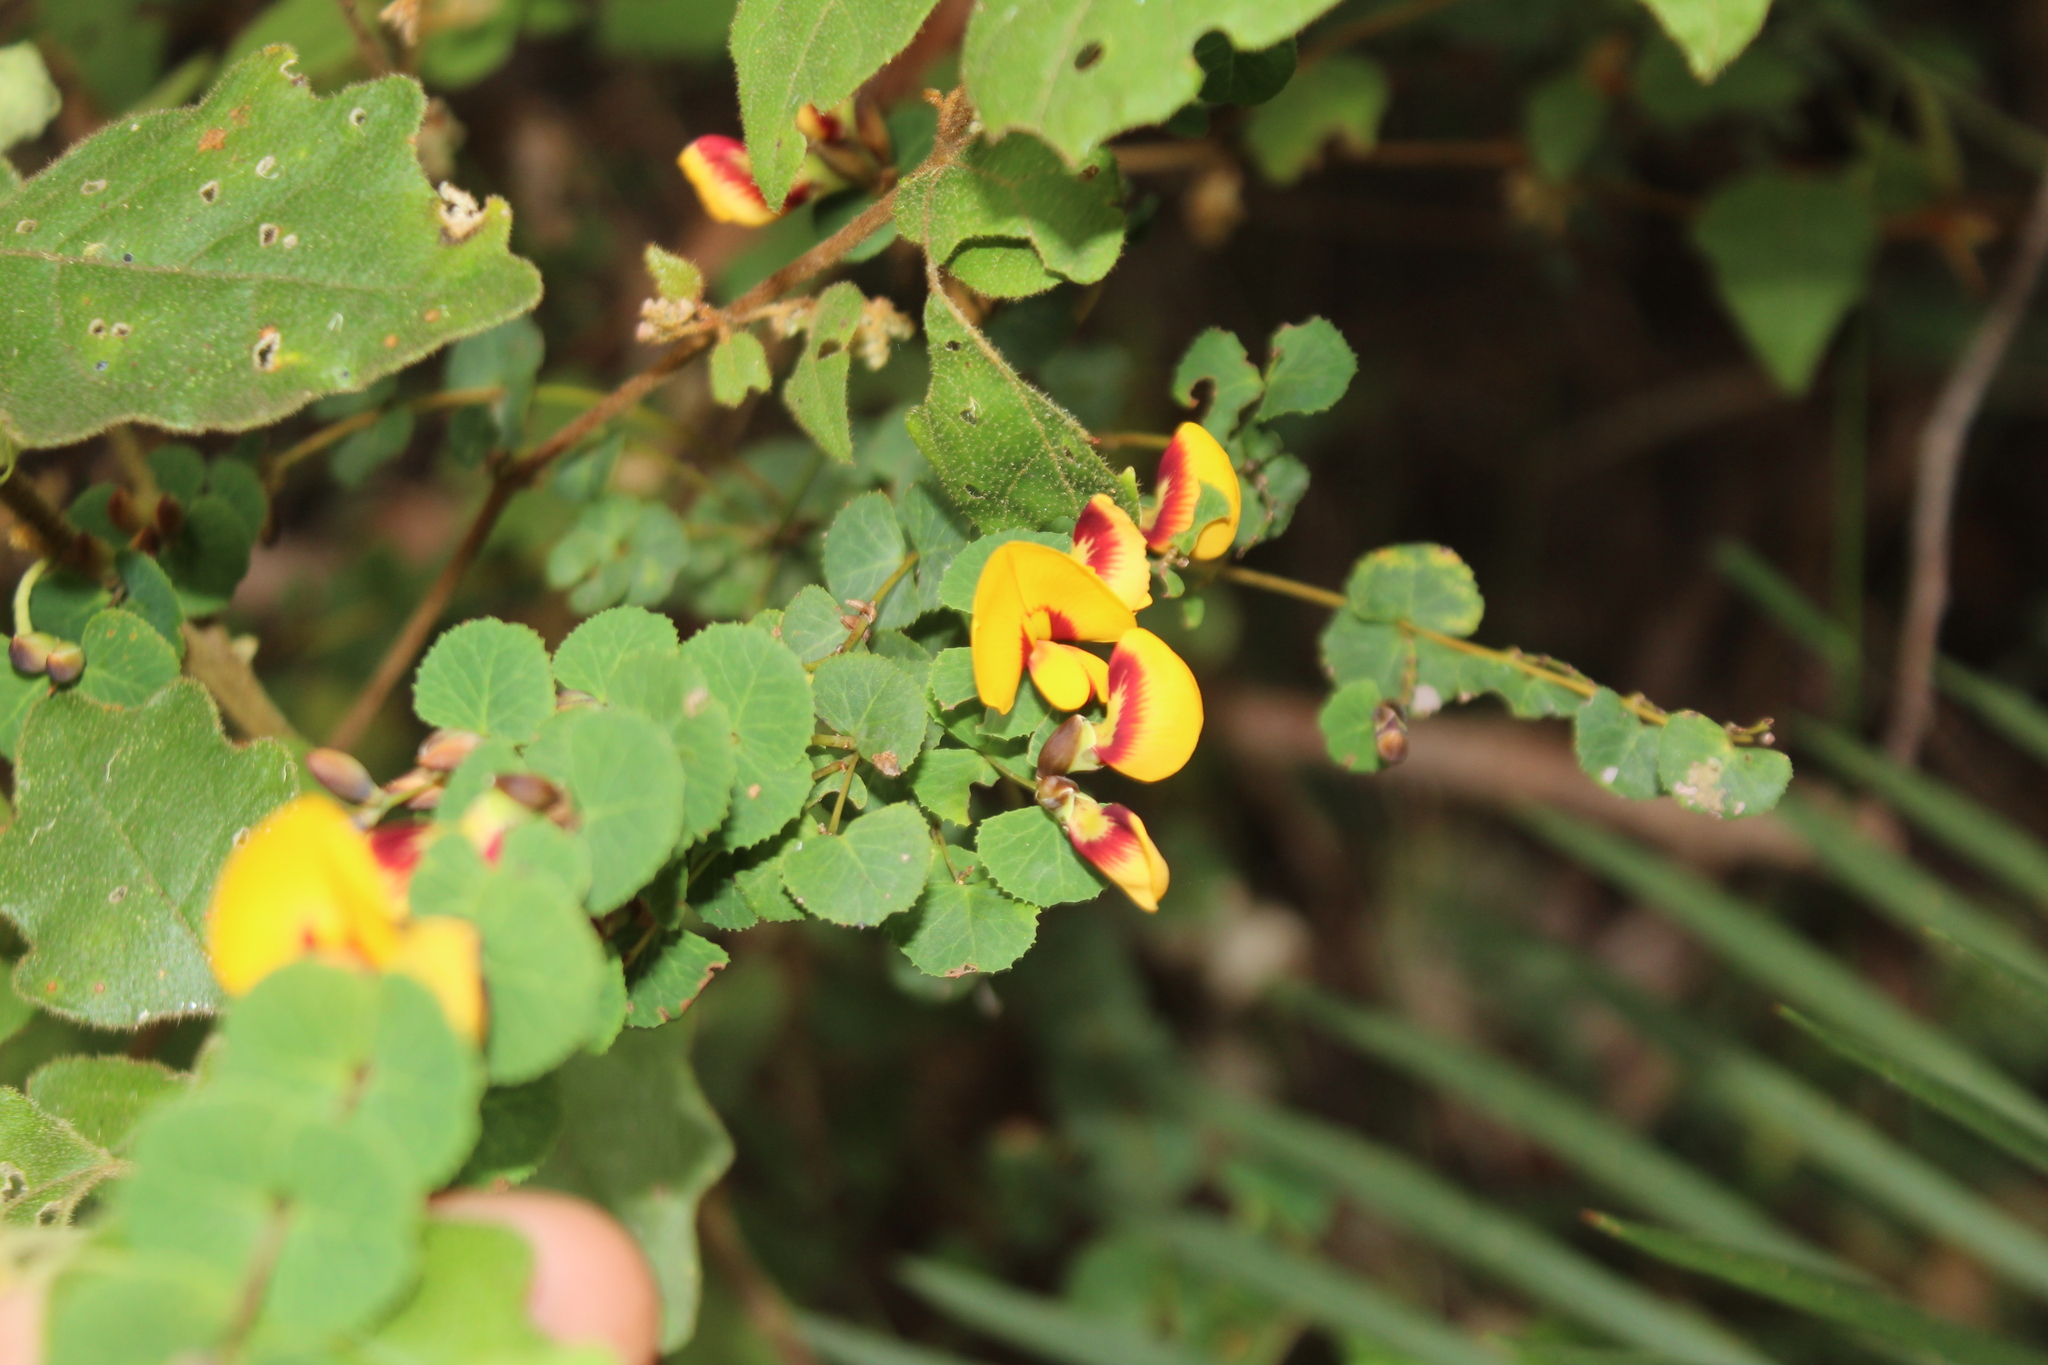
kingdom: Plantae
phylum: Tracheophyta
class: Magnoliopsida
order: Fabales
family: Fabaceae
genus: Bossiaea
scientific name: Bossiaea webbii
